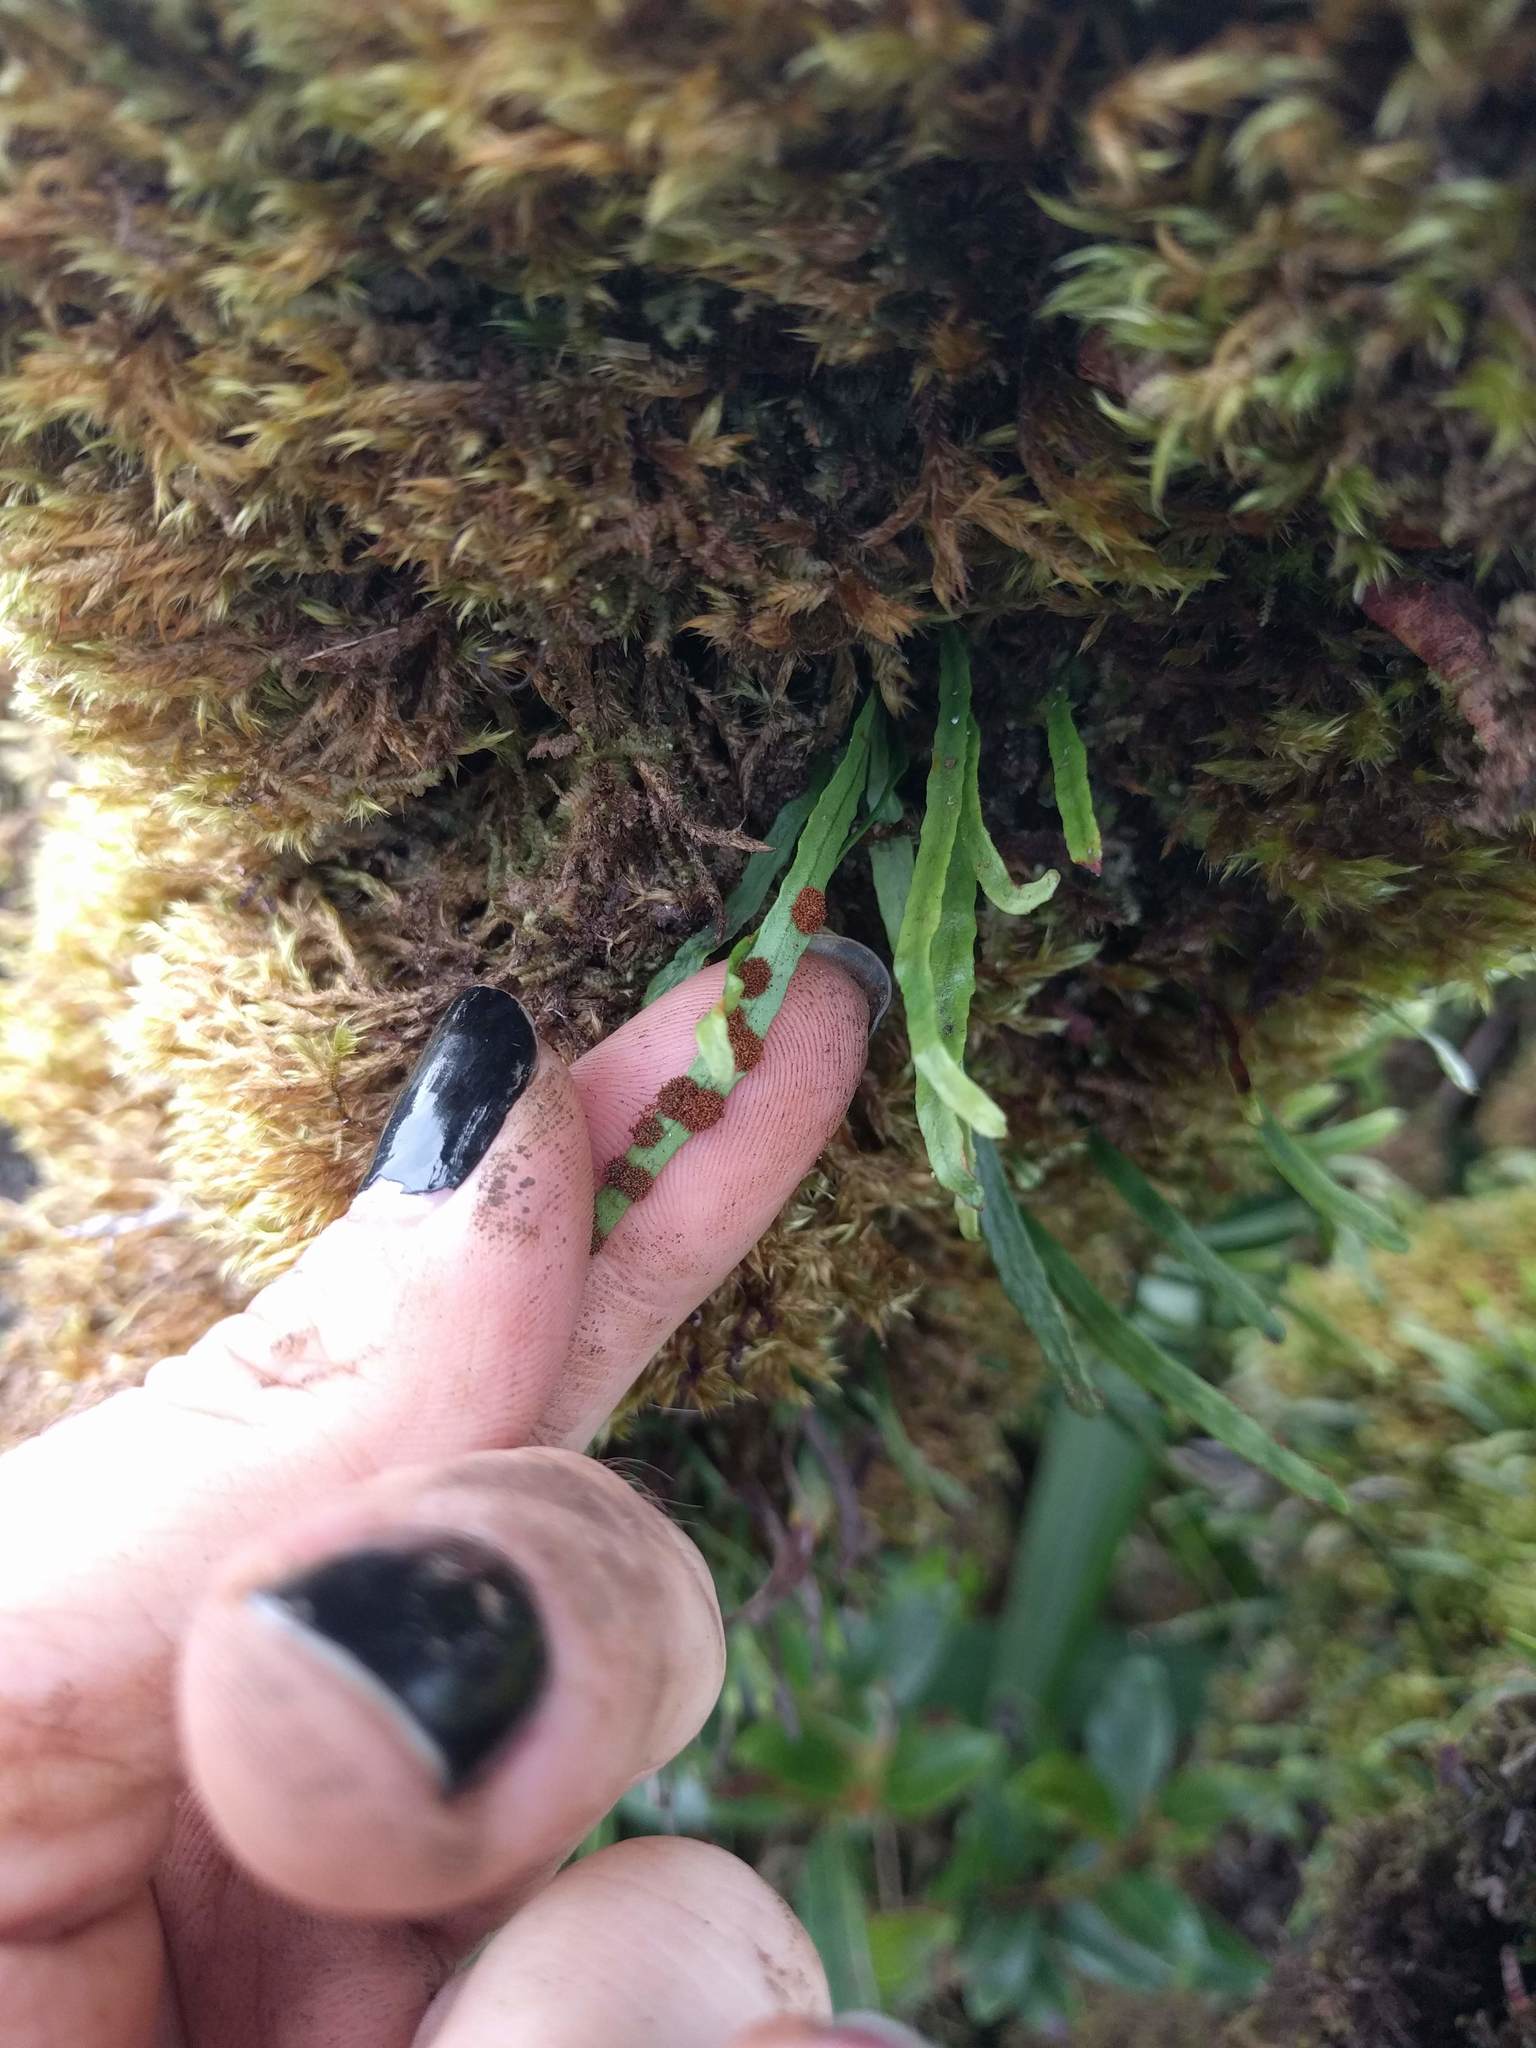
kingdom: Plantae
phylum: Tracheophyta
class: Polypodiopsida
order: Polypodiales
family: Polypodiaceae
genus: Adenophorus
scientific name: Adenophorus tenellus
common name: Kolokolo
